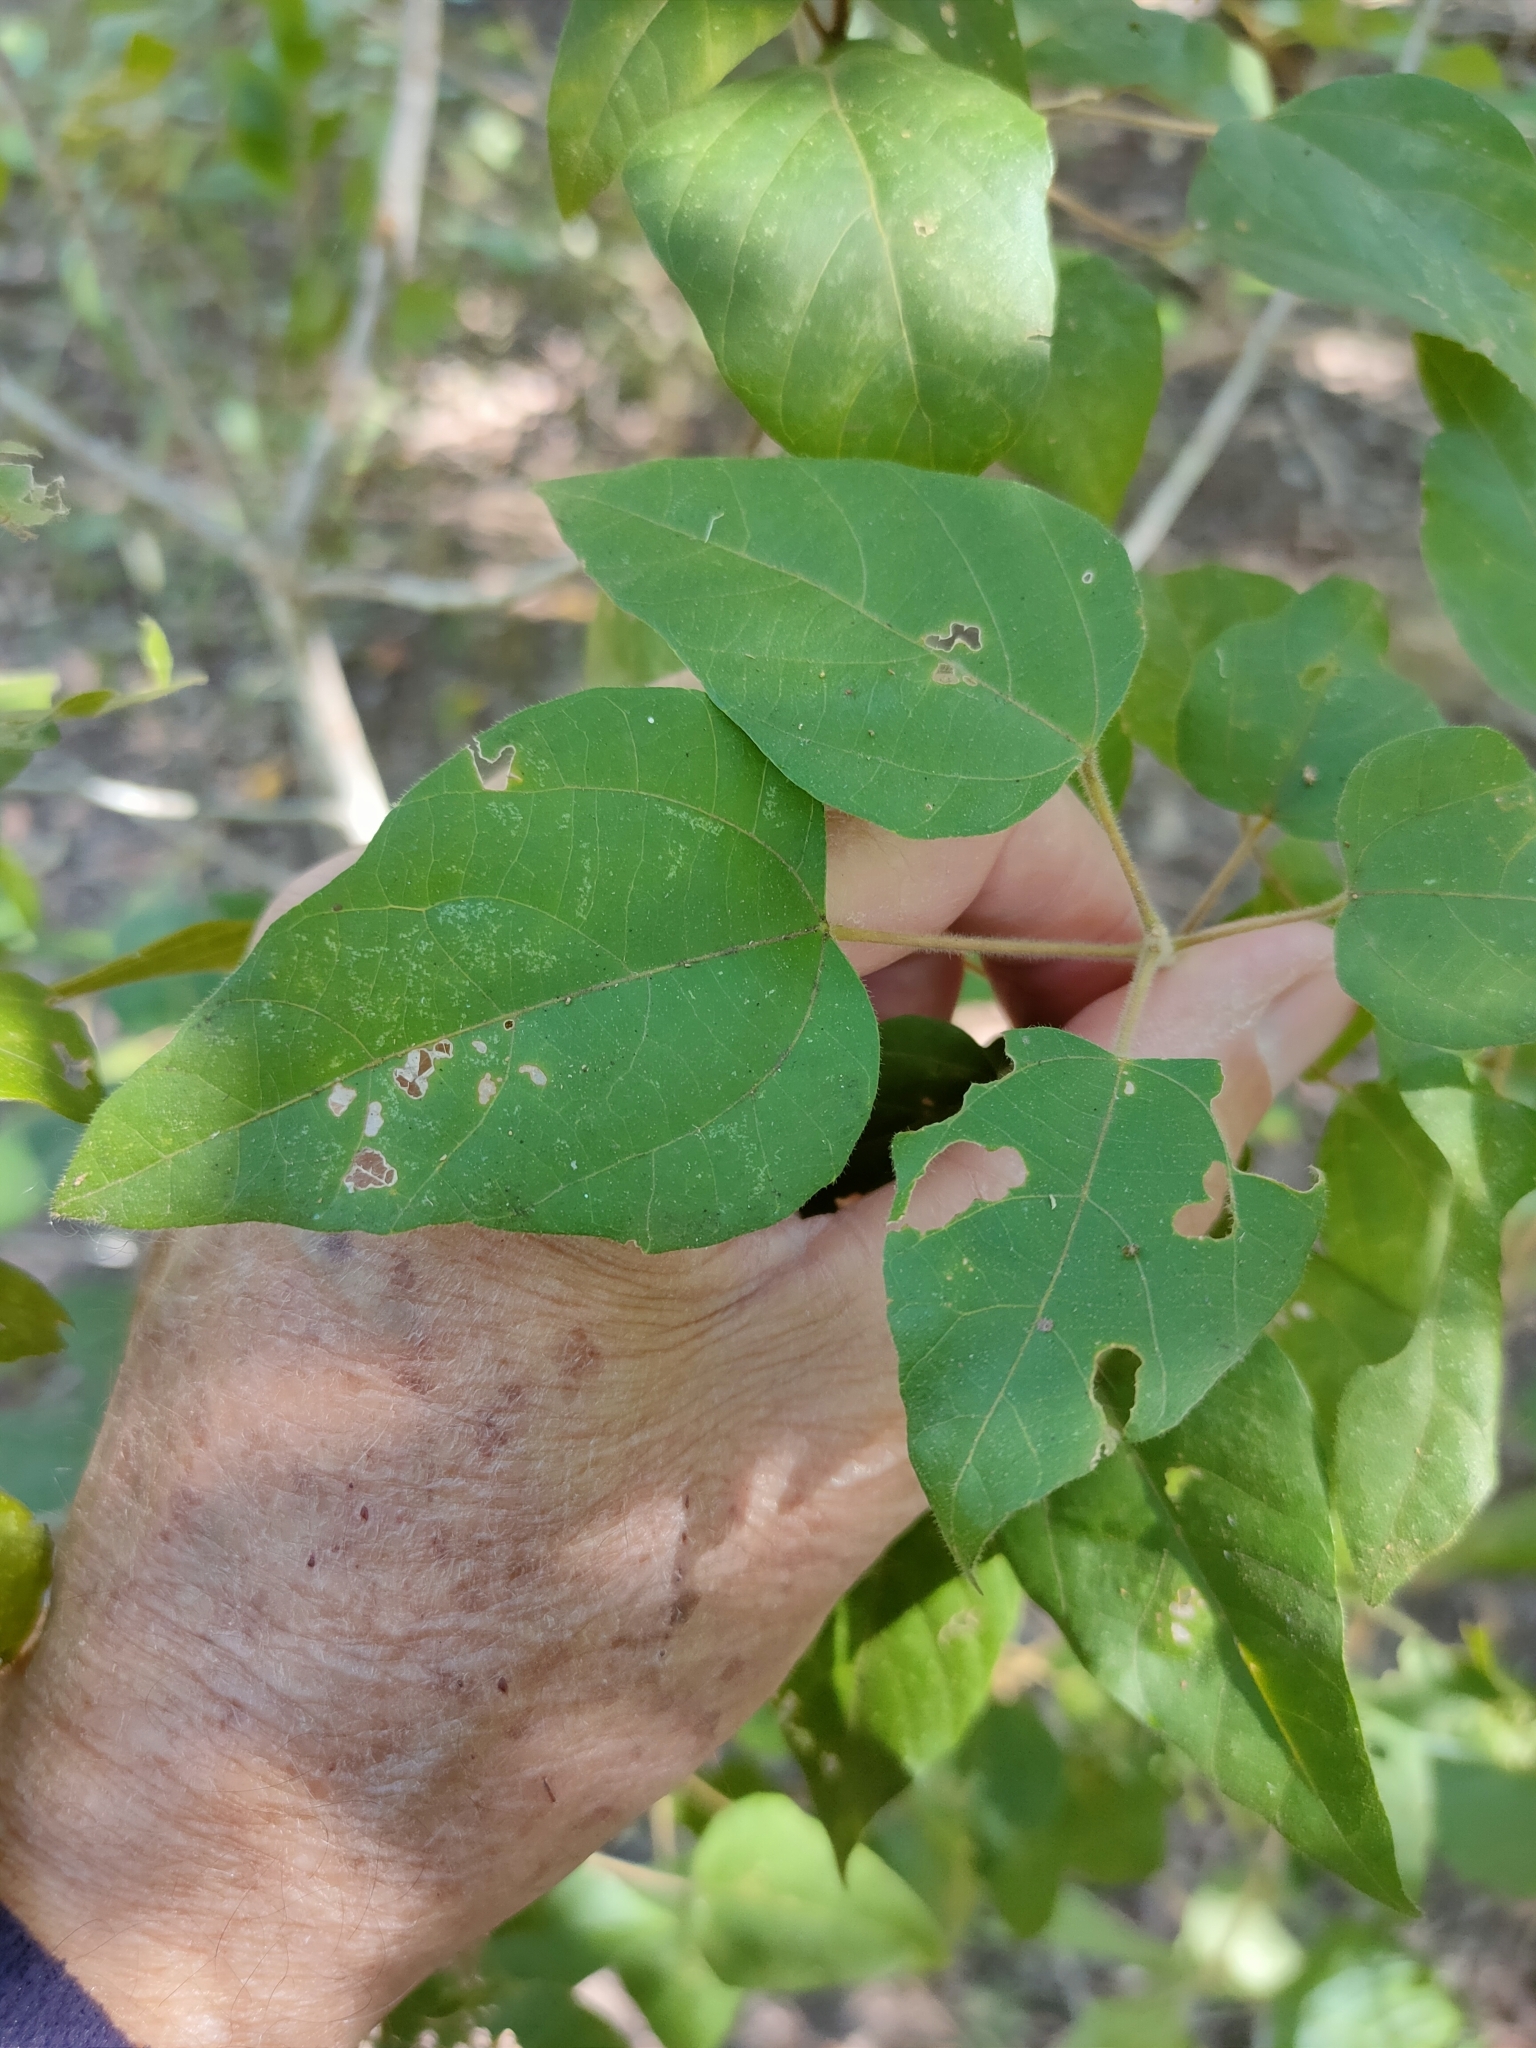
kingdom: Plantae
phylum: Tracheophyta
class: Magnoliopsida
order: Malpighiales
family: Euphorbiaceae
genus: Mallotus
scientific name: Mallotus discolor
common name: White kamala
